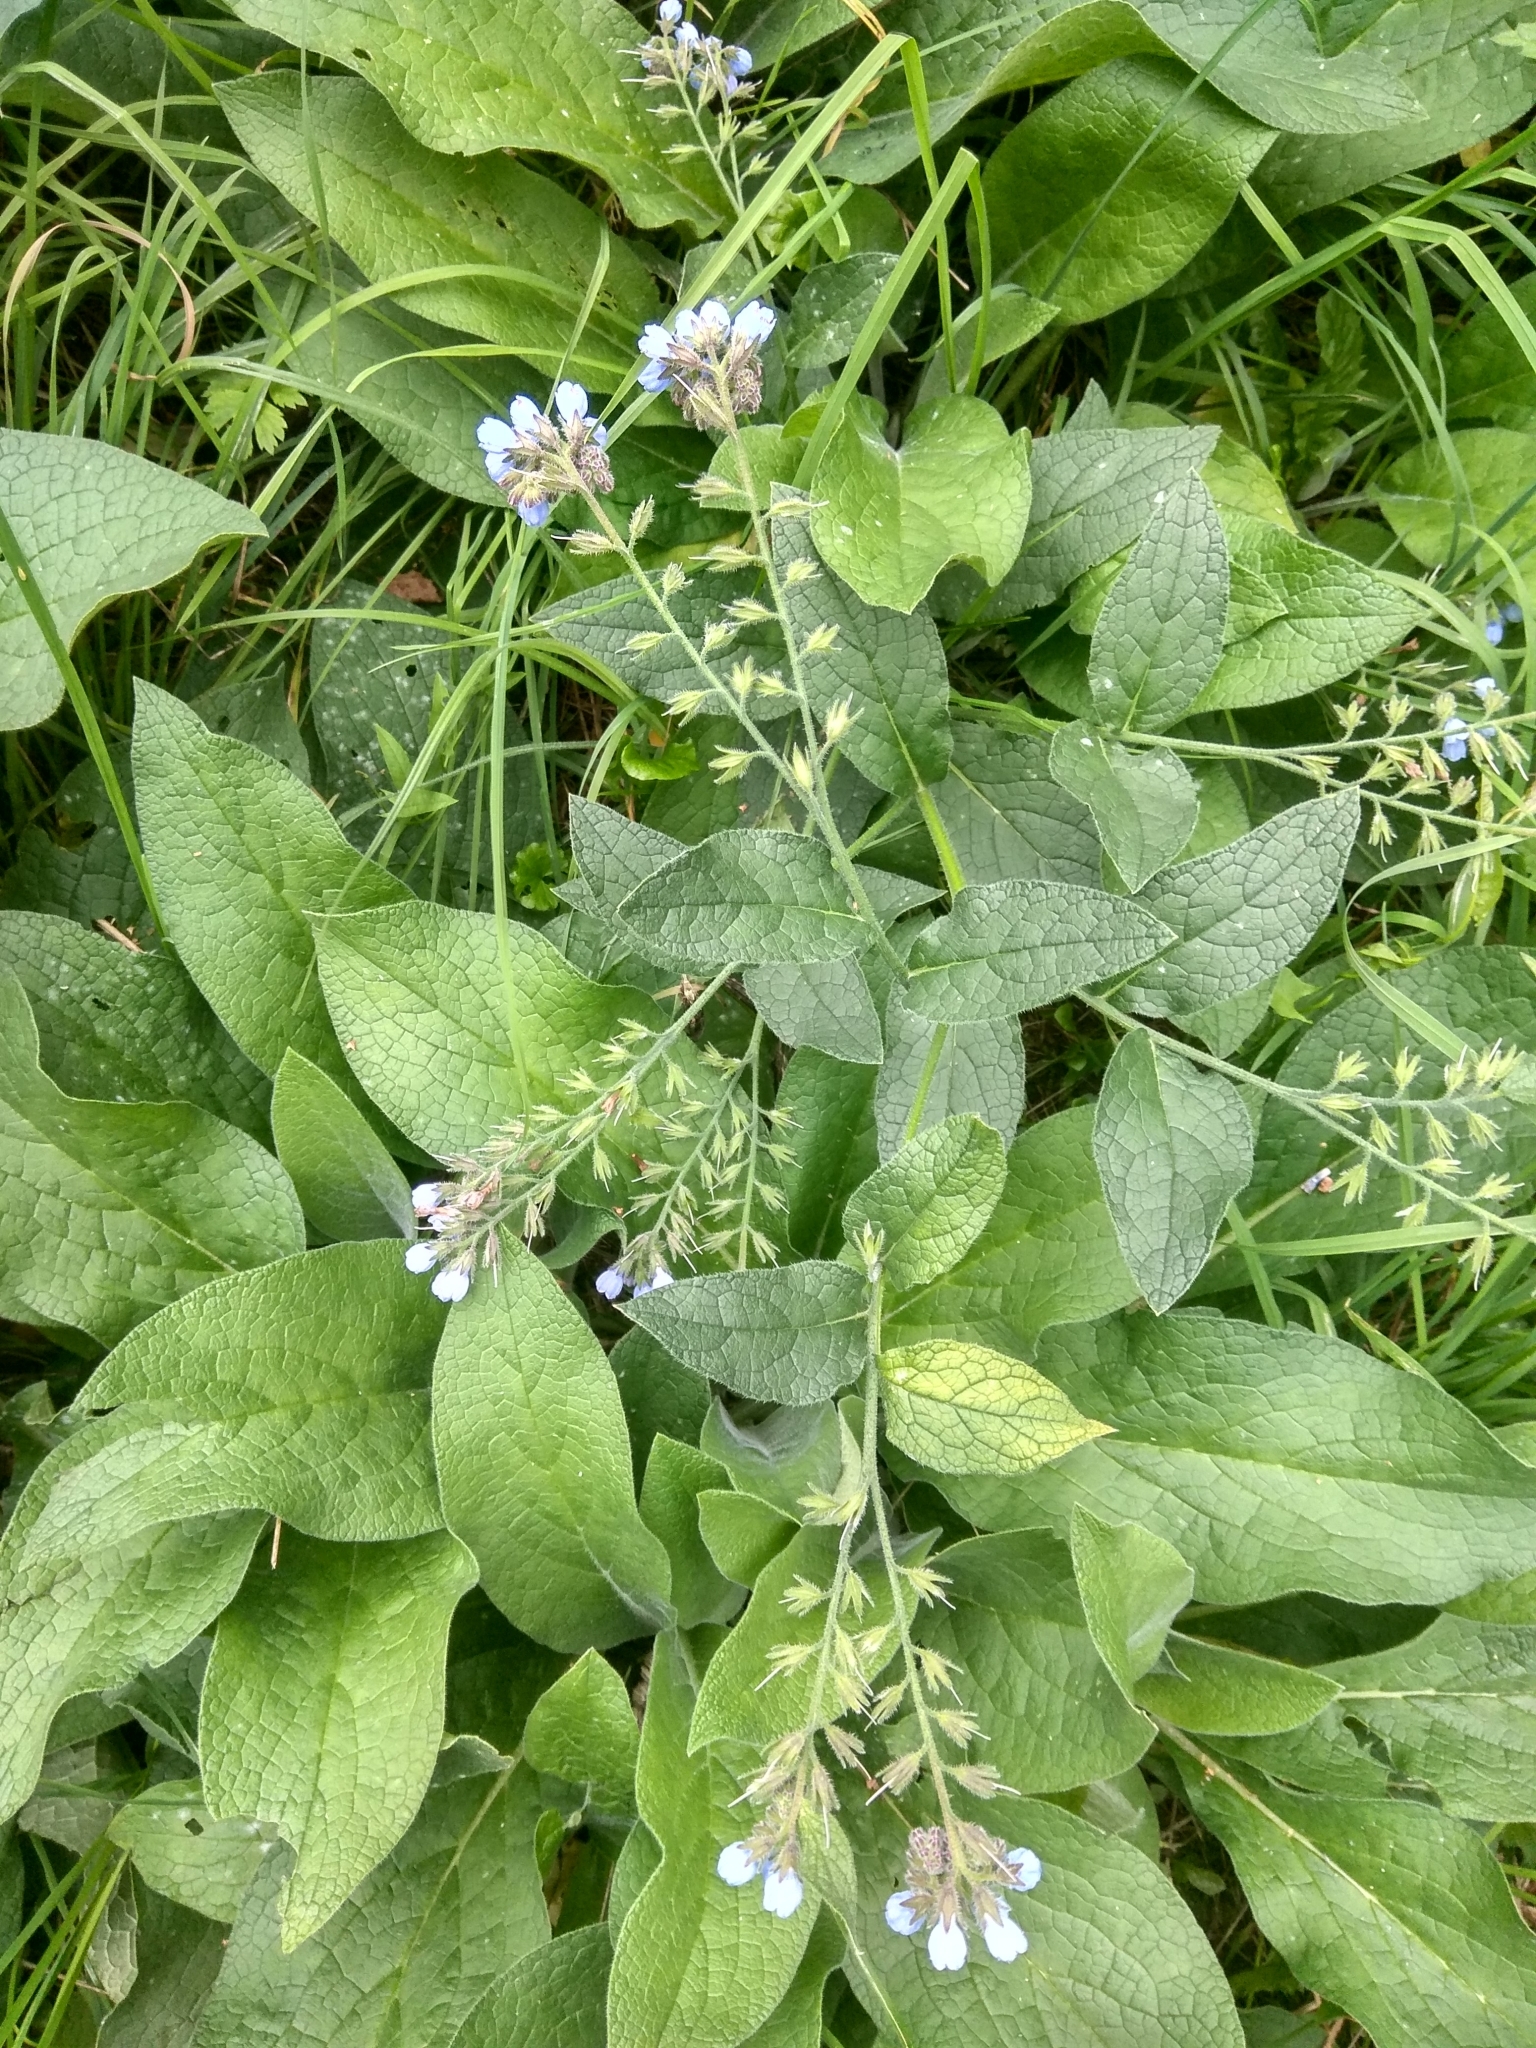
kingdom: Plantae
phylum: Tracheophyta
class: Magnoliopsida
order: Boraginales
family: Boraginaceae
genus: Symphytum
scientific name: Symphytum caucasicum
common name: Caucasian comfrey
